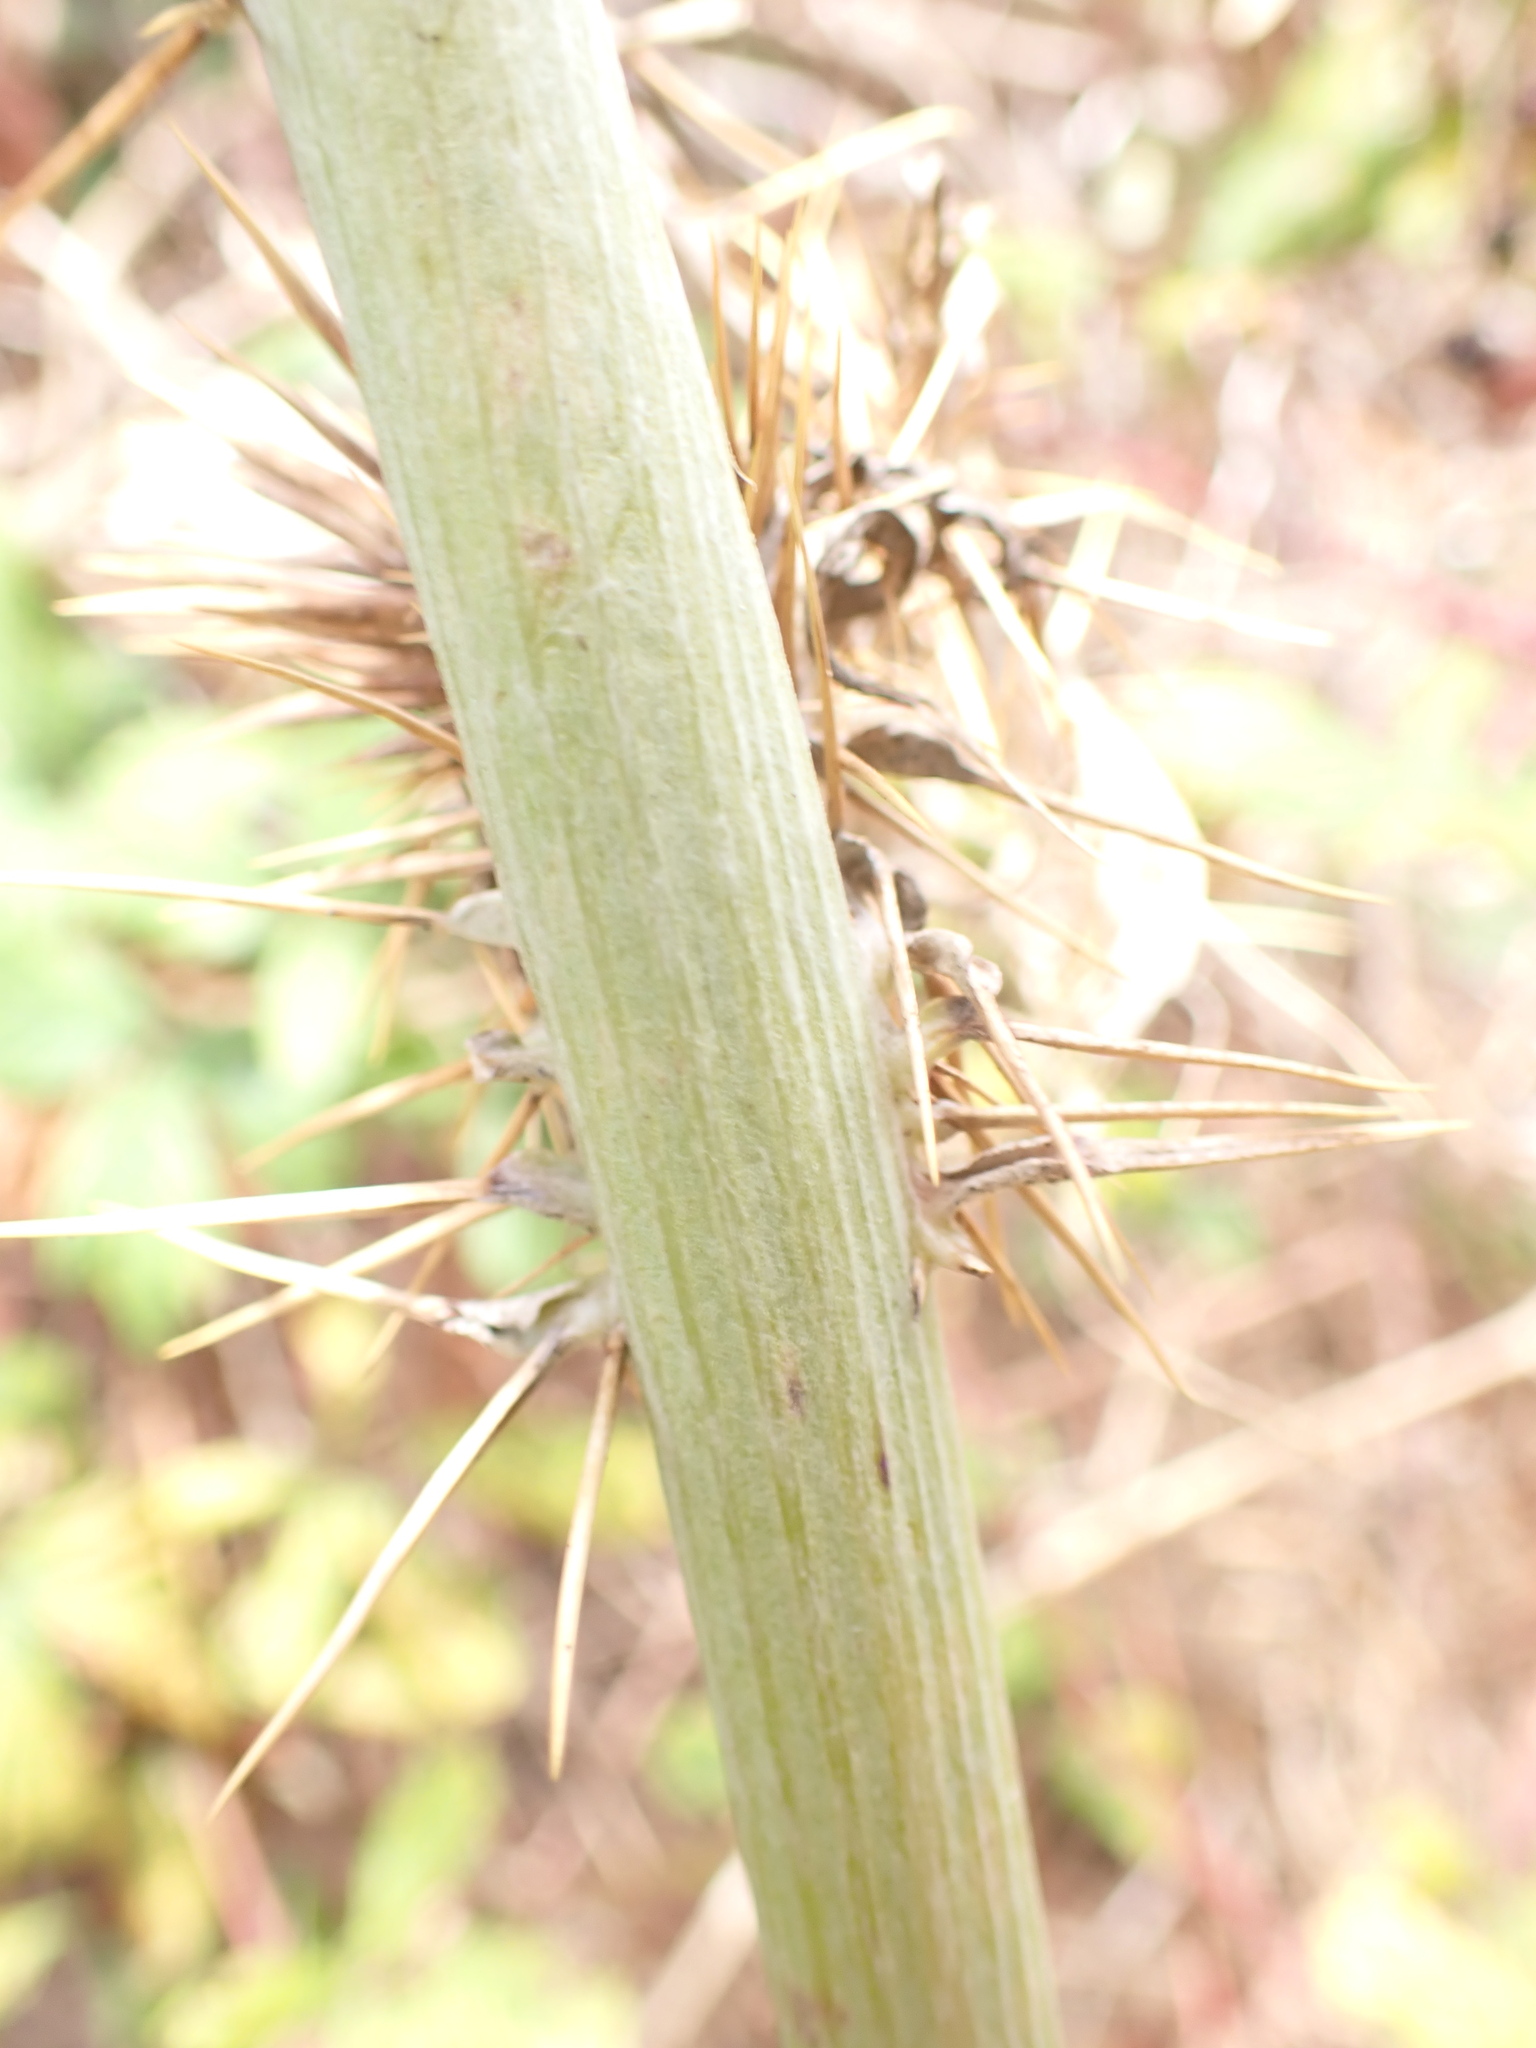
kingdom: Plantae
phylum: Tracheophyta
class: Magnoliopsida
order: Asterales
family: Asteraceae
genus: Cynara
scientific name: Cynara cardunculus
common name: Globe artichoke
